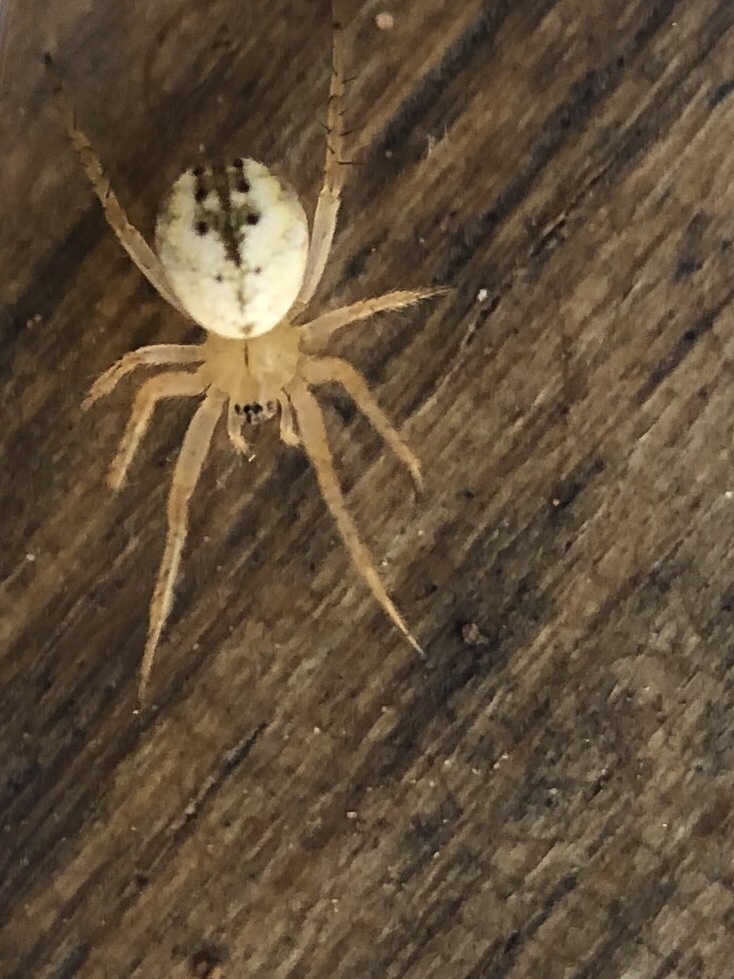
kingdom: Animalia
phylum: Arthropoda
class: Arachnida
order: Araneae
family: Araneidae
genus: Mangora
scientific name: Mangora acalypha
